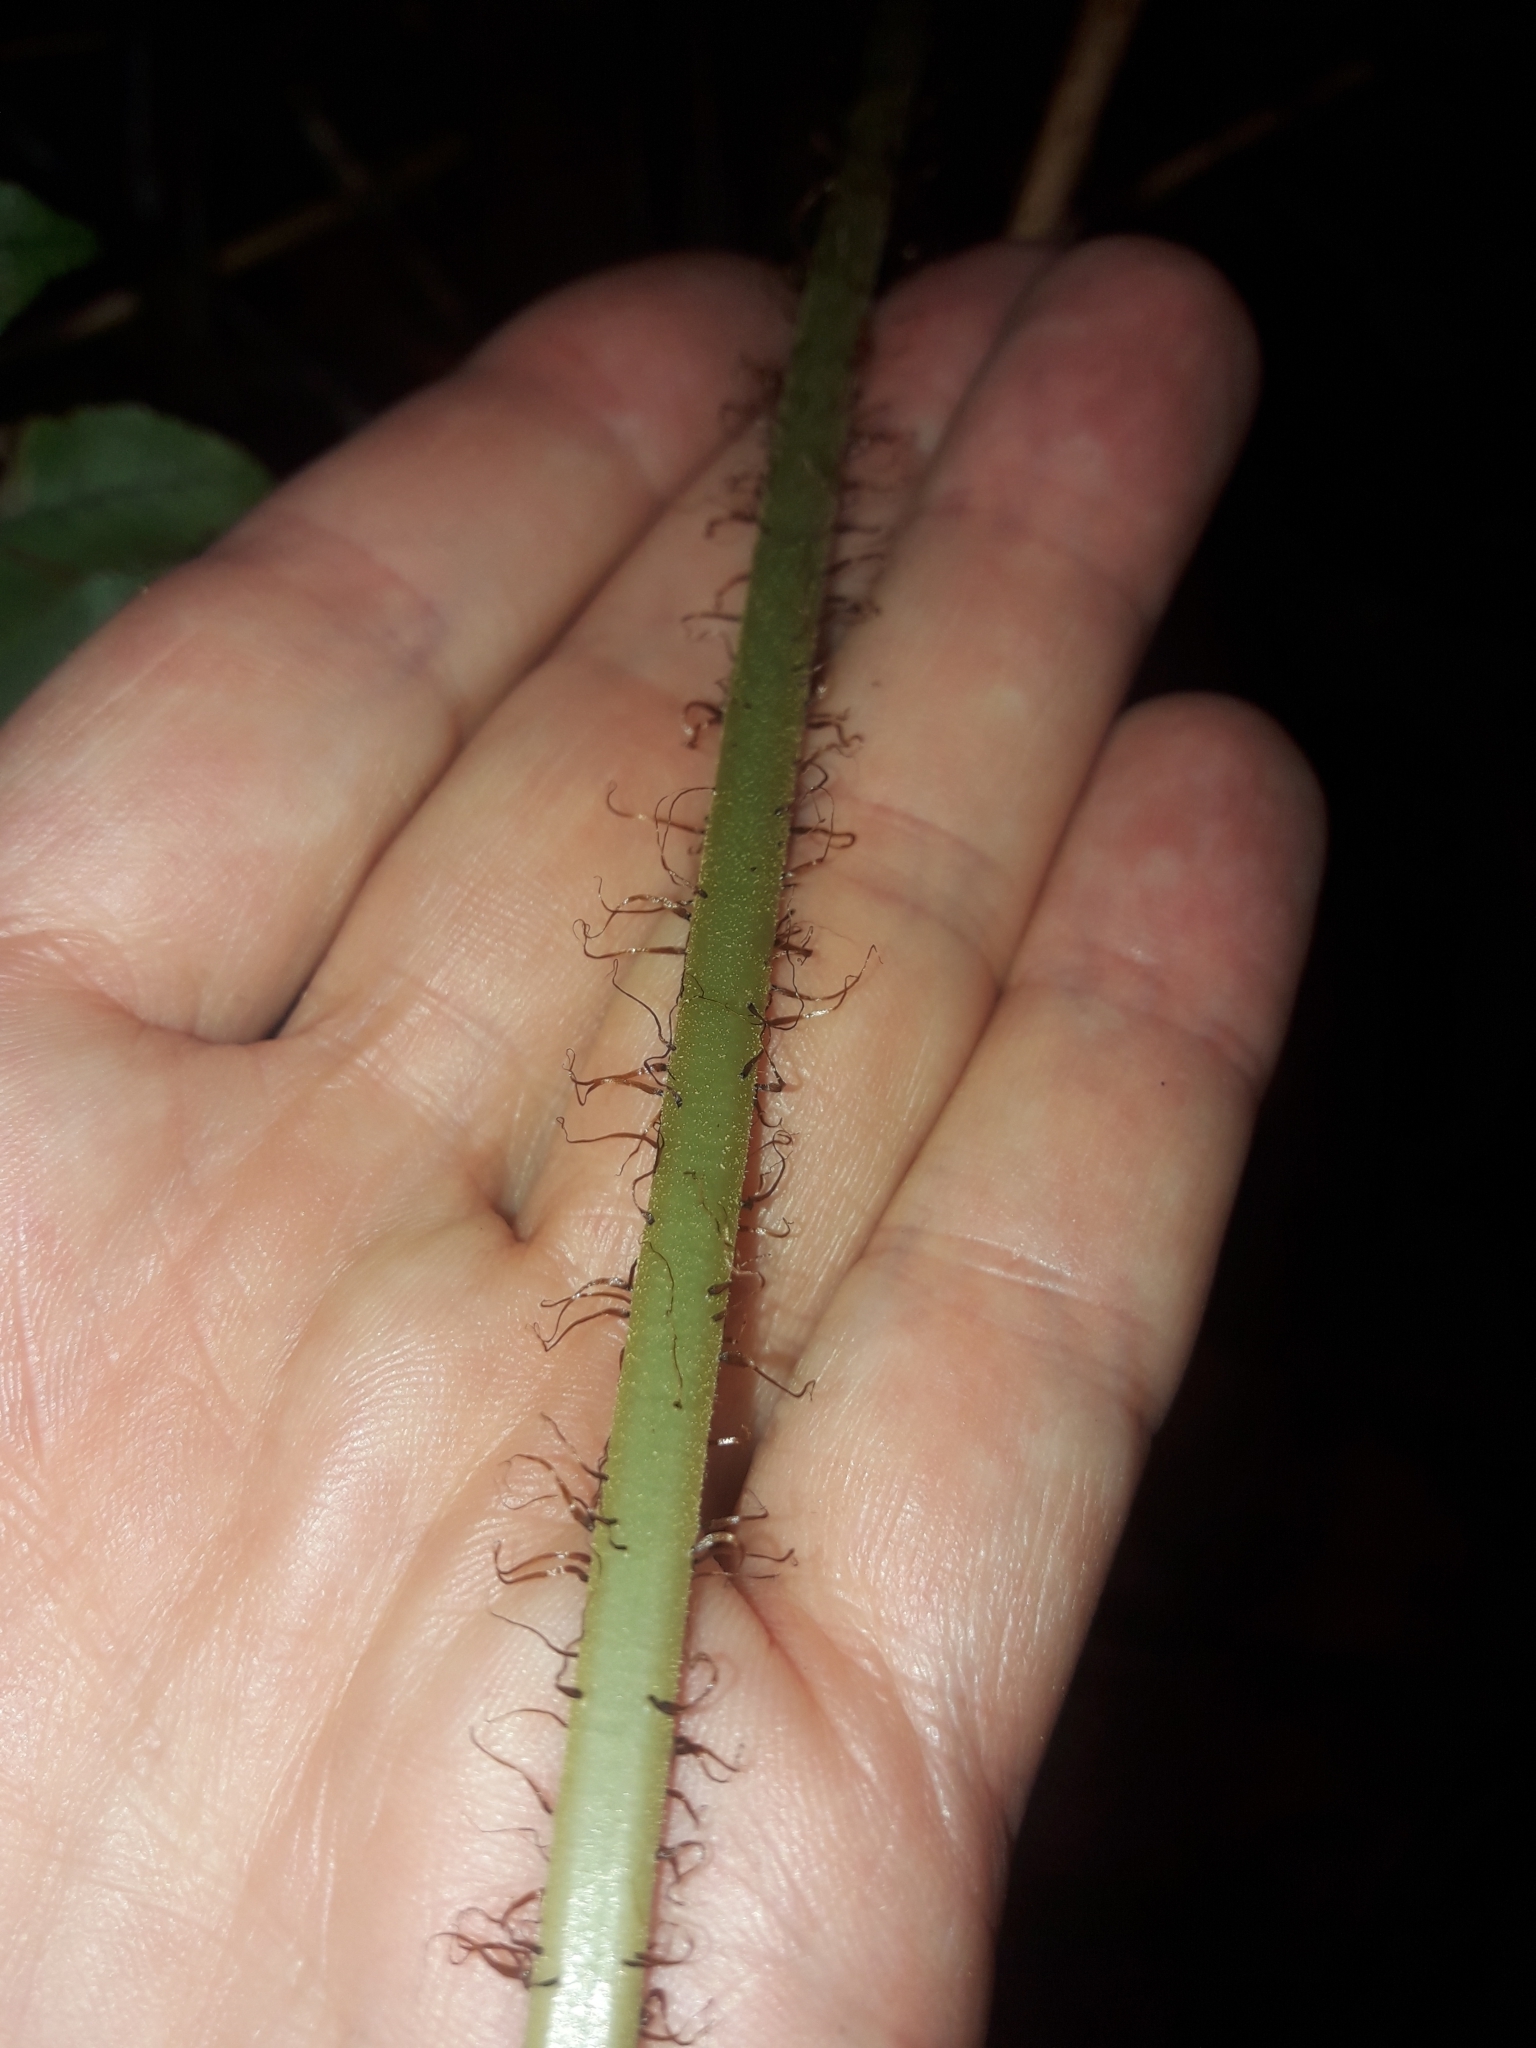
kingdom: Plantae
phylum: Tracheophyta
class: Polypodiopsida
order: Polypodiales
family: Blechnaceae
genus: Cranfillia
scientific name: Cranfillia hirsuta
